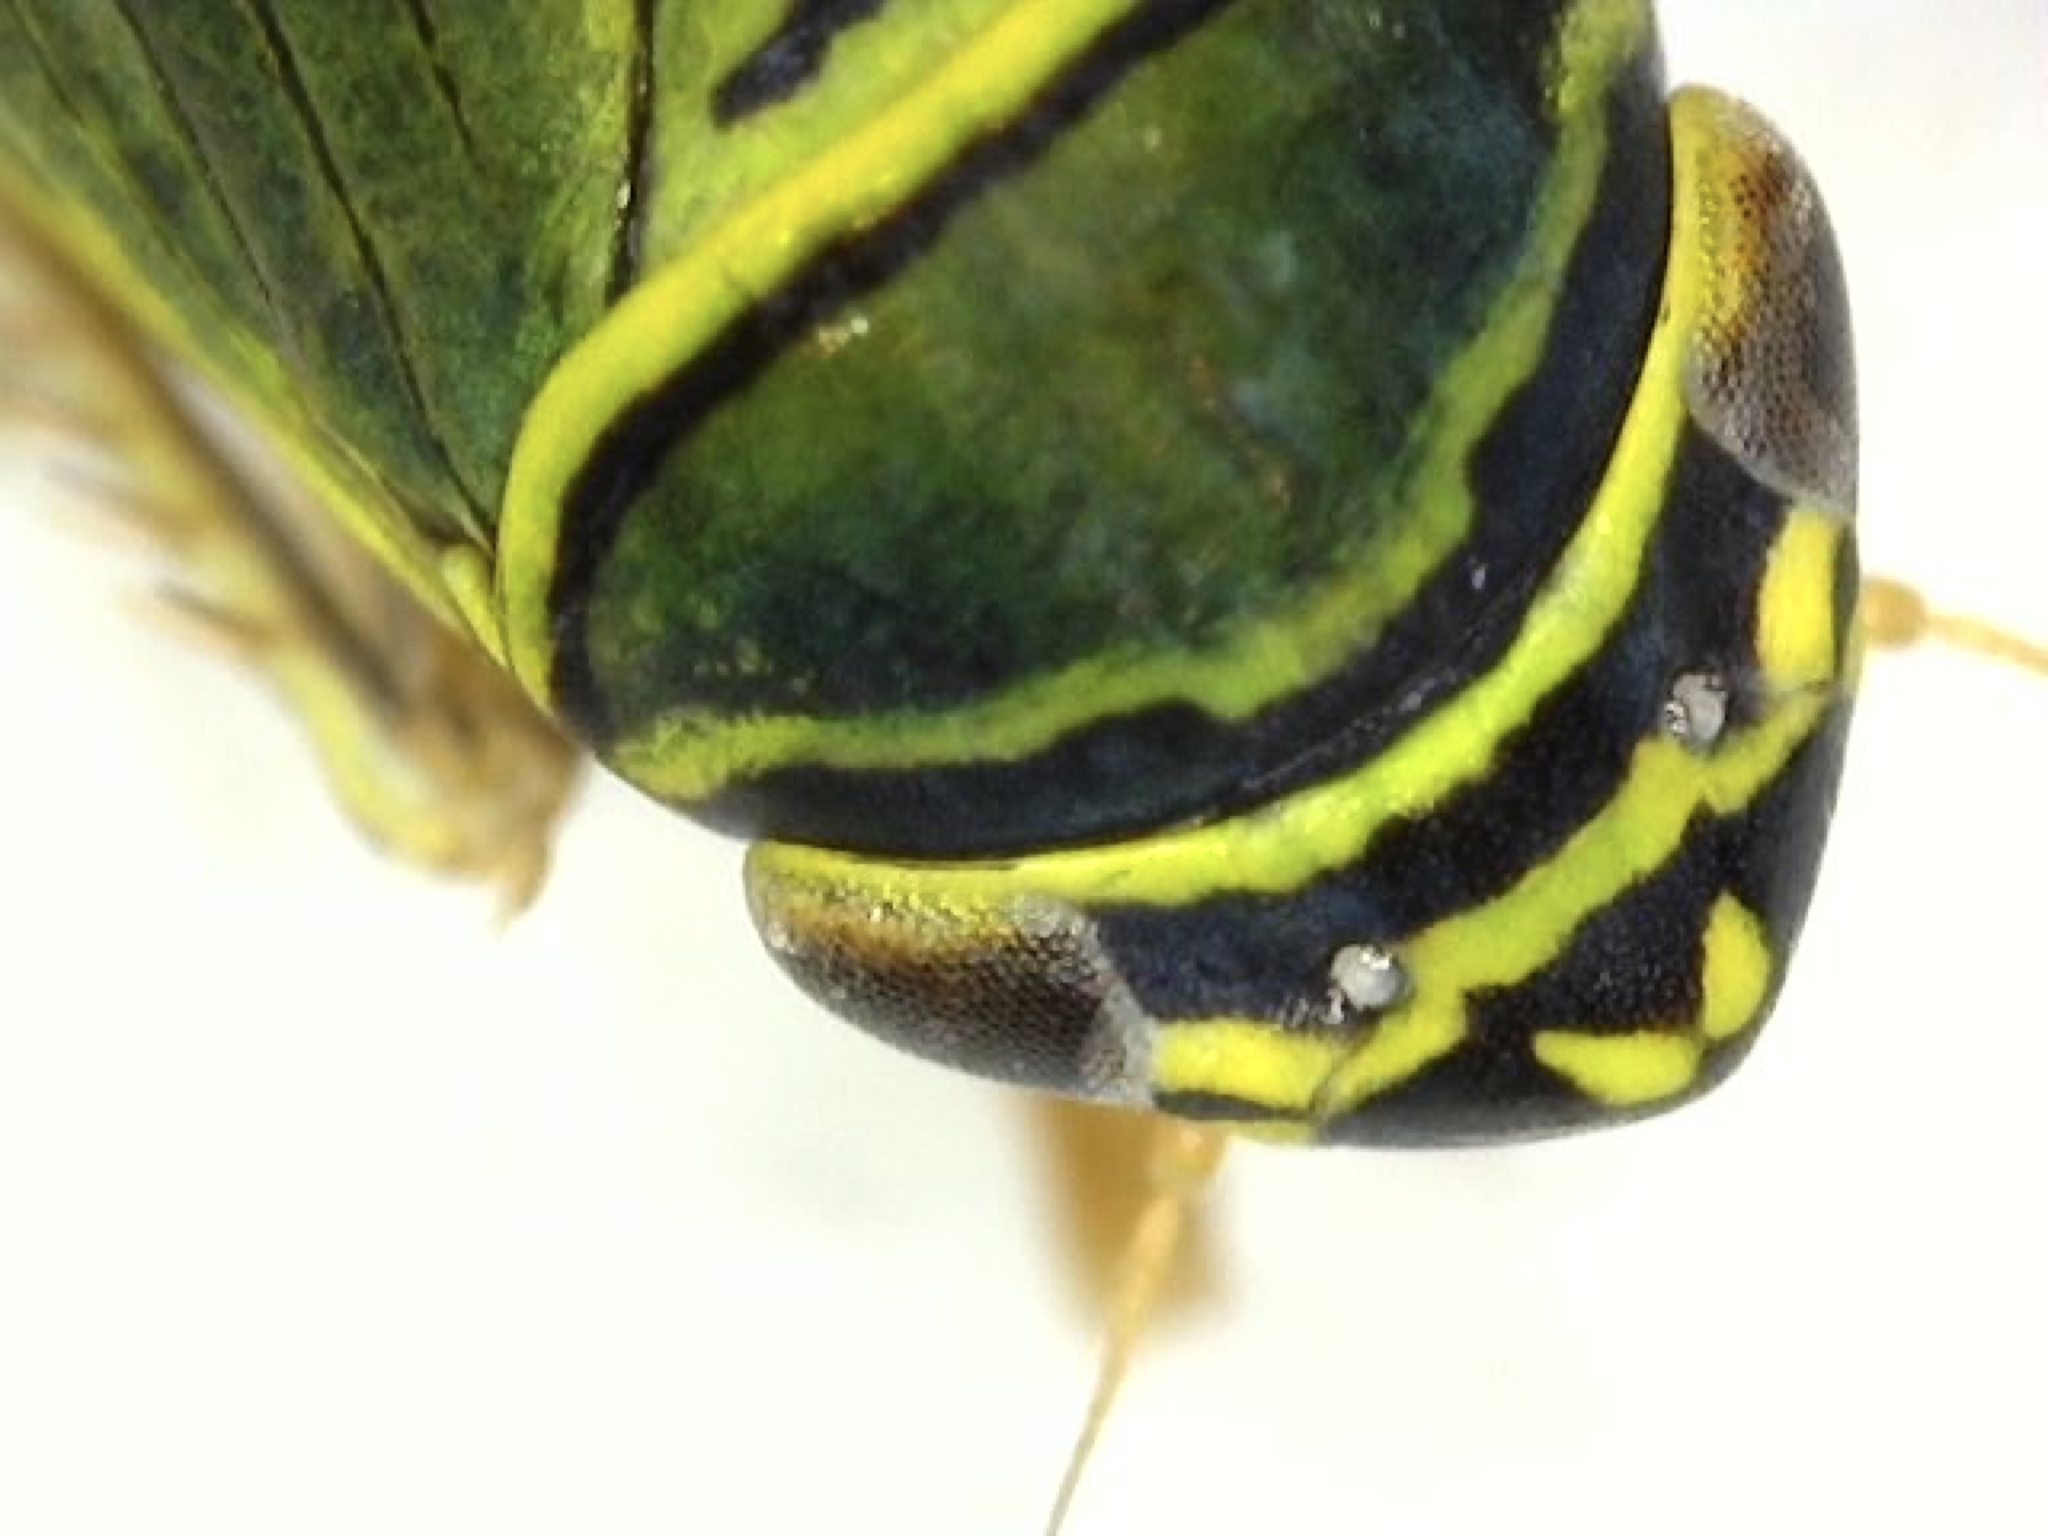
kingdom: Animalia
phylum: Arthropoda
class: Insecta
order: Hemiptera
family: Cicadellidae
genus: Tylozygus
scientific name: Tylozygus geometricus
